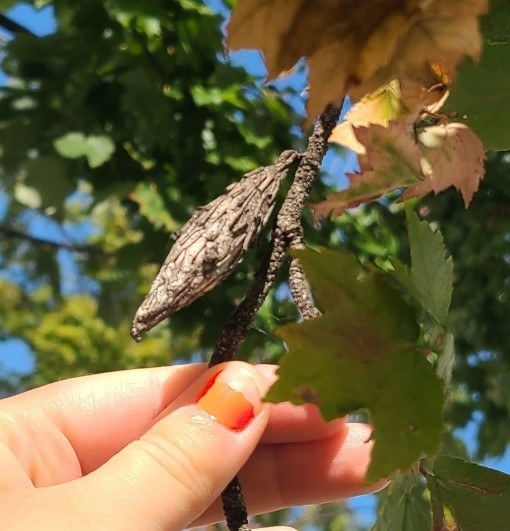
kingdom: Animalia
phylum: Arthropoda
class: Insecta
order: Lepidoptera
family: Psychidae
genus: Thyridopteryx
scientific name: Thyridopteryx ephemeraeformis
